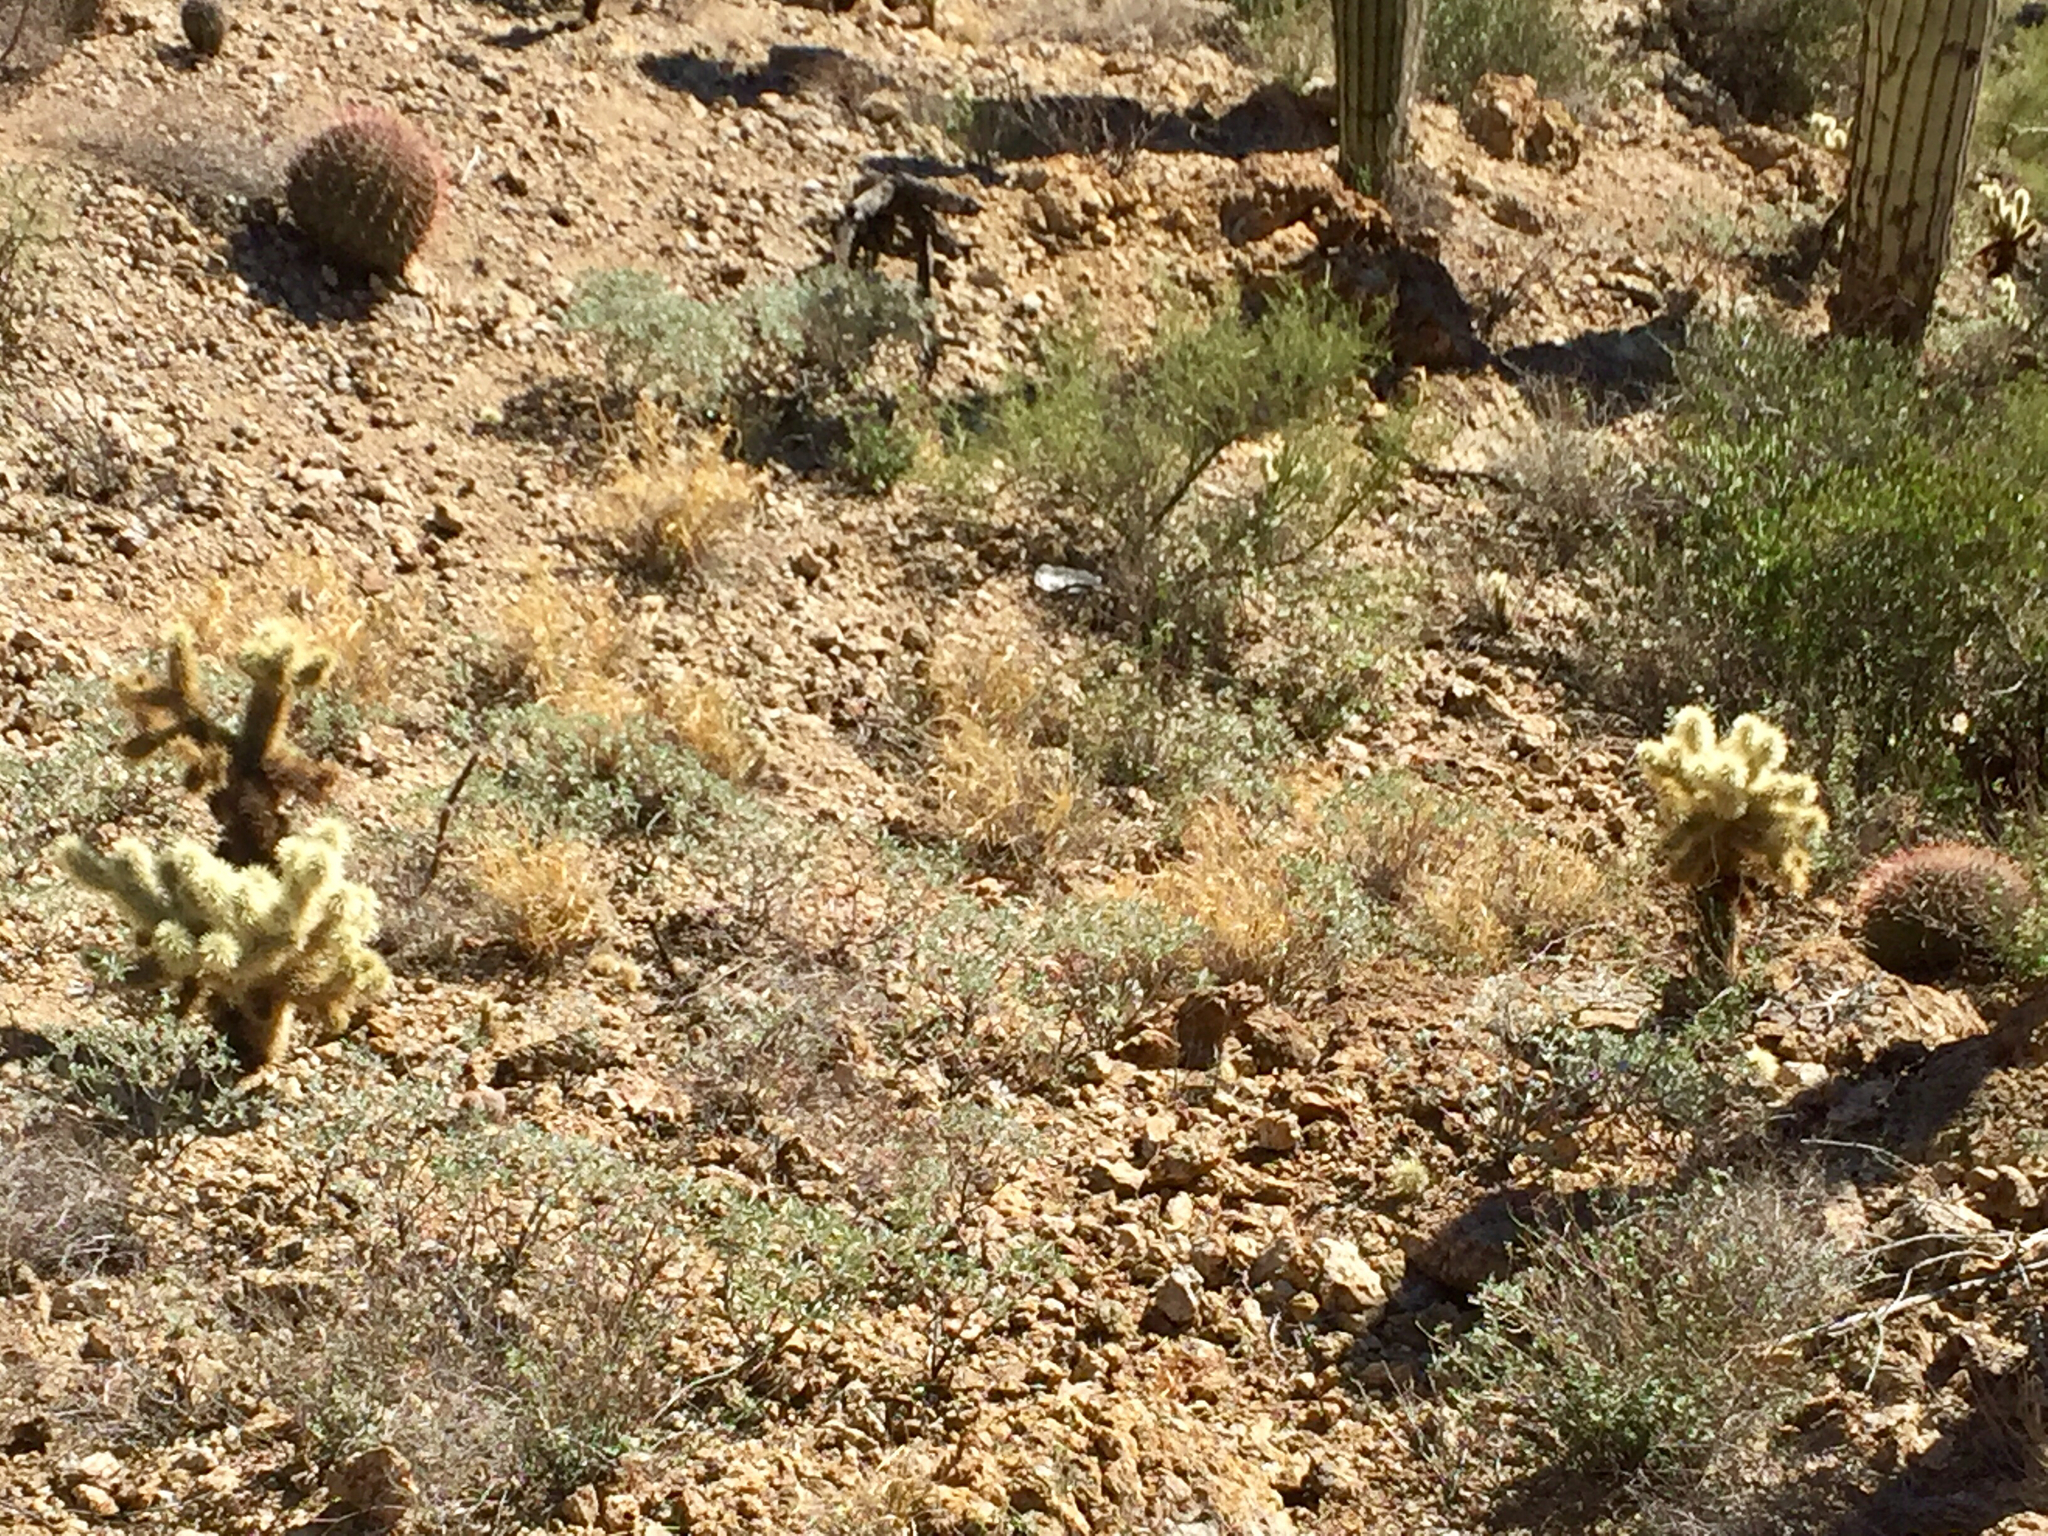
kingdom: Plantae
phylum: Tracheophyta
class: Magnoliopsida
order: Caryophyllales
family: Cactaceae
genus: Cylindropuntia
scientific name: Cylindropuntia fosbergii
